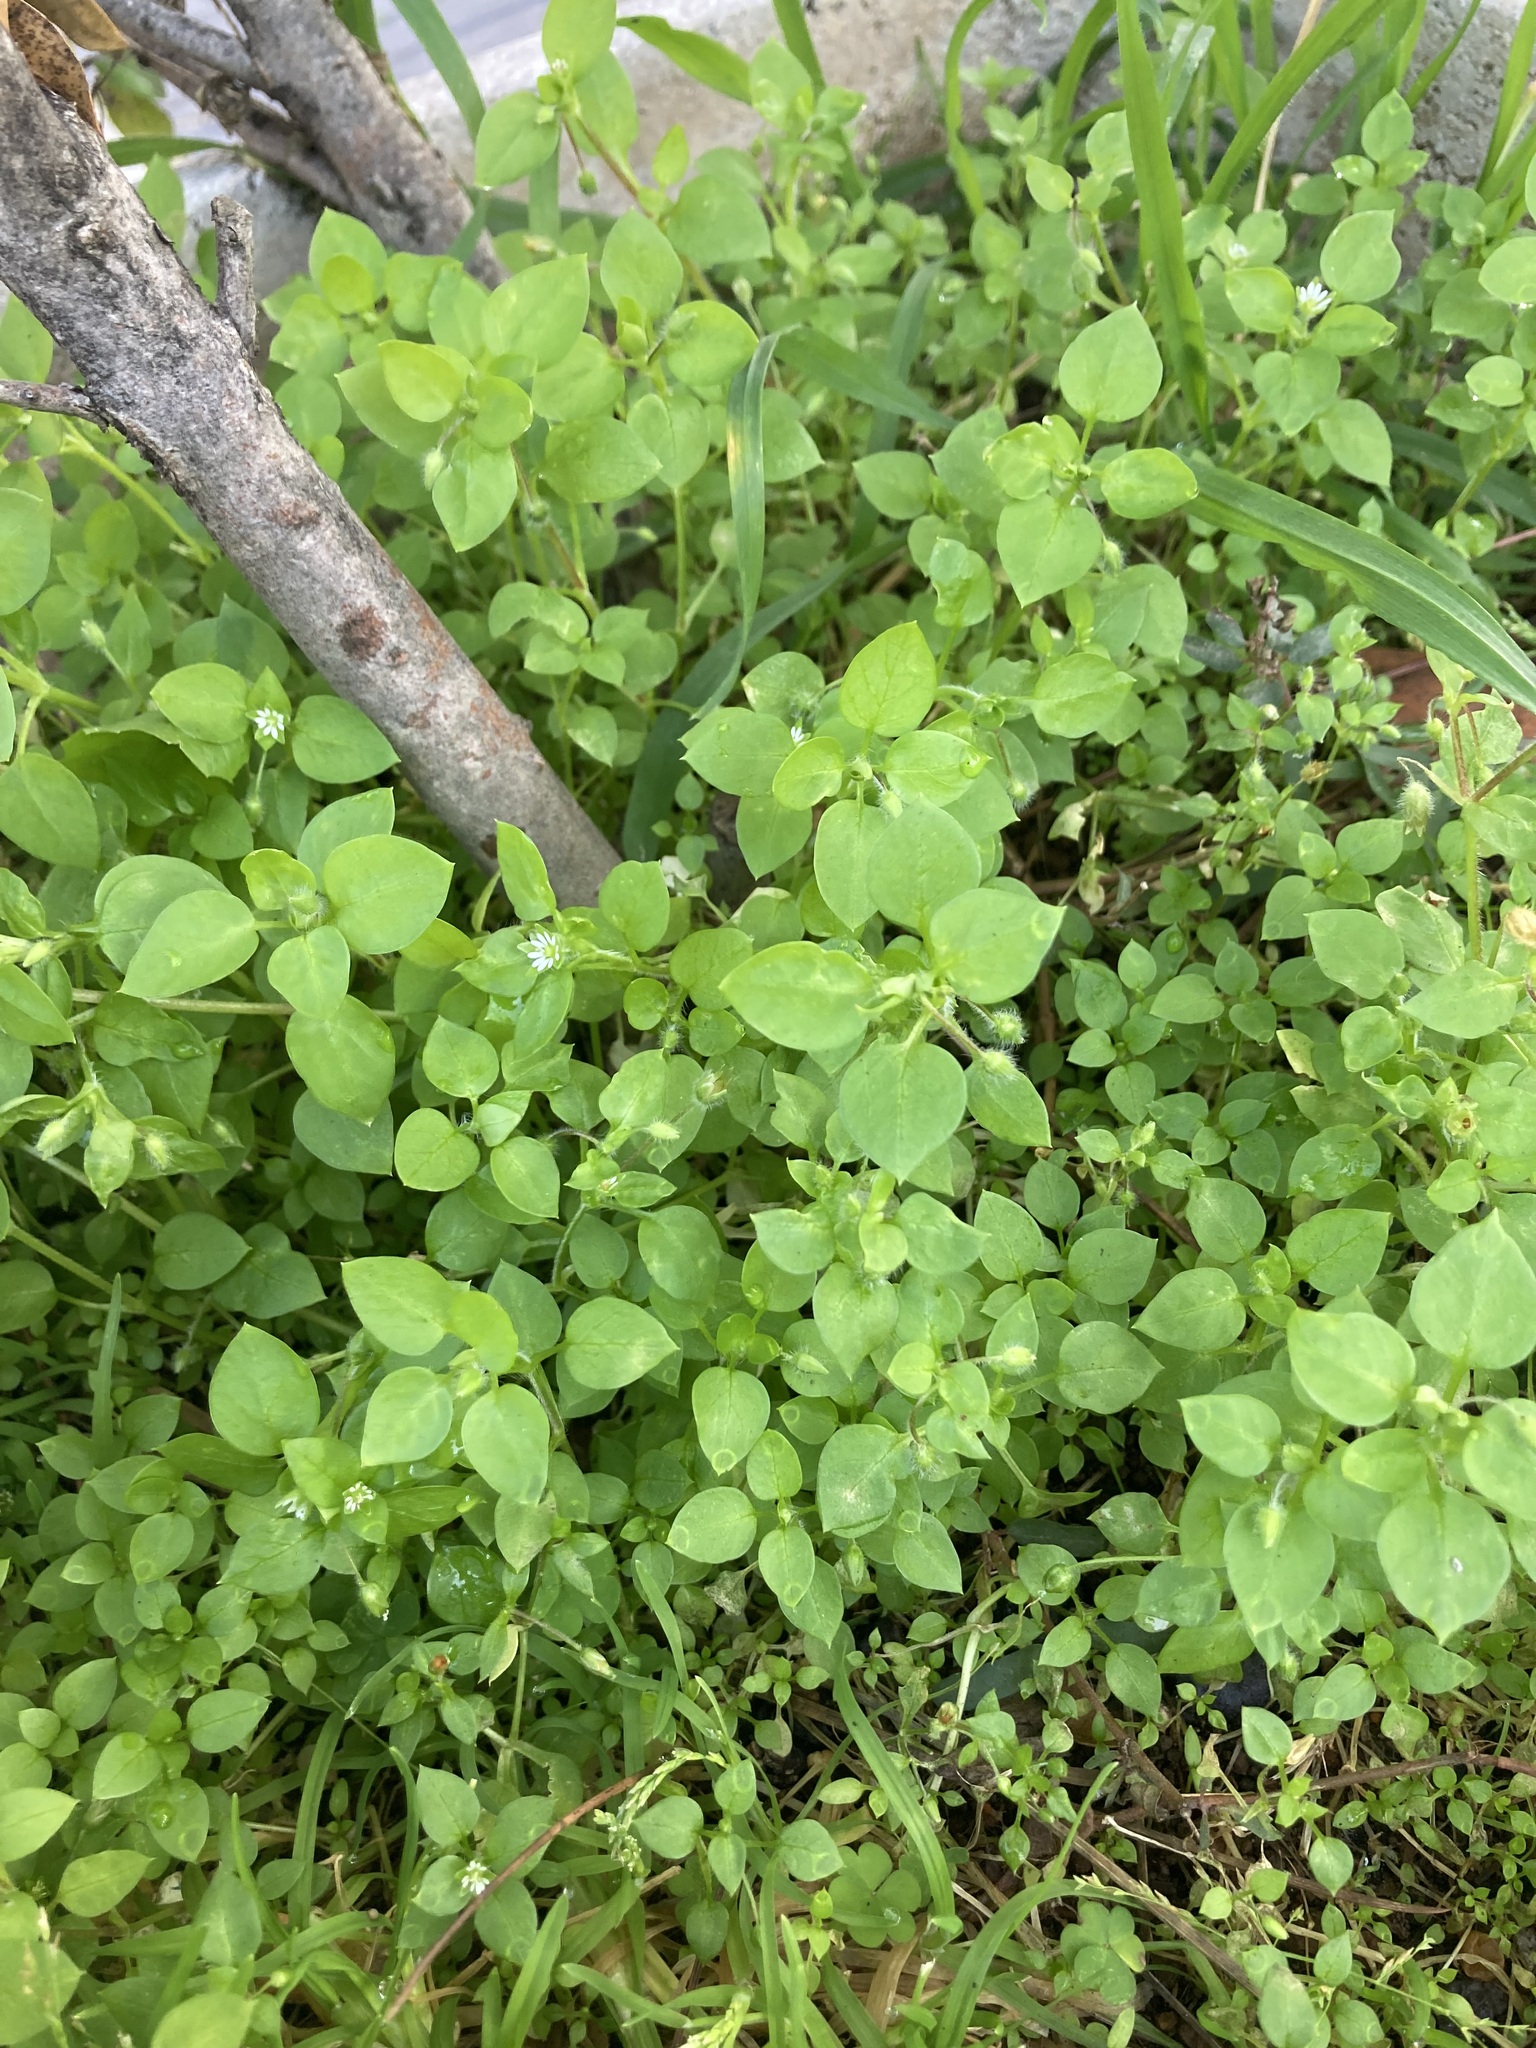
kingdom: Plantae
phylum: Tracheophyta
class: Magnoliopsida
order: Caryophyllales
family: Caryophyllaceae
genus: Stellaria
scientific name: Stellaria media
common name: Common chickweed
